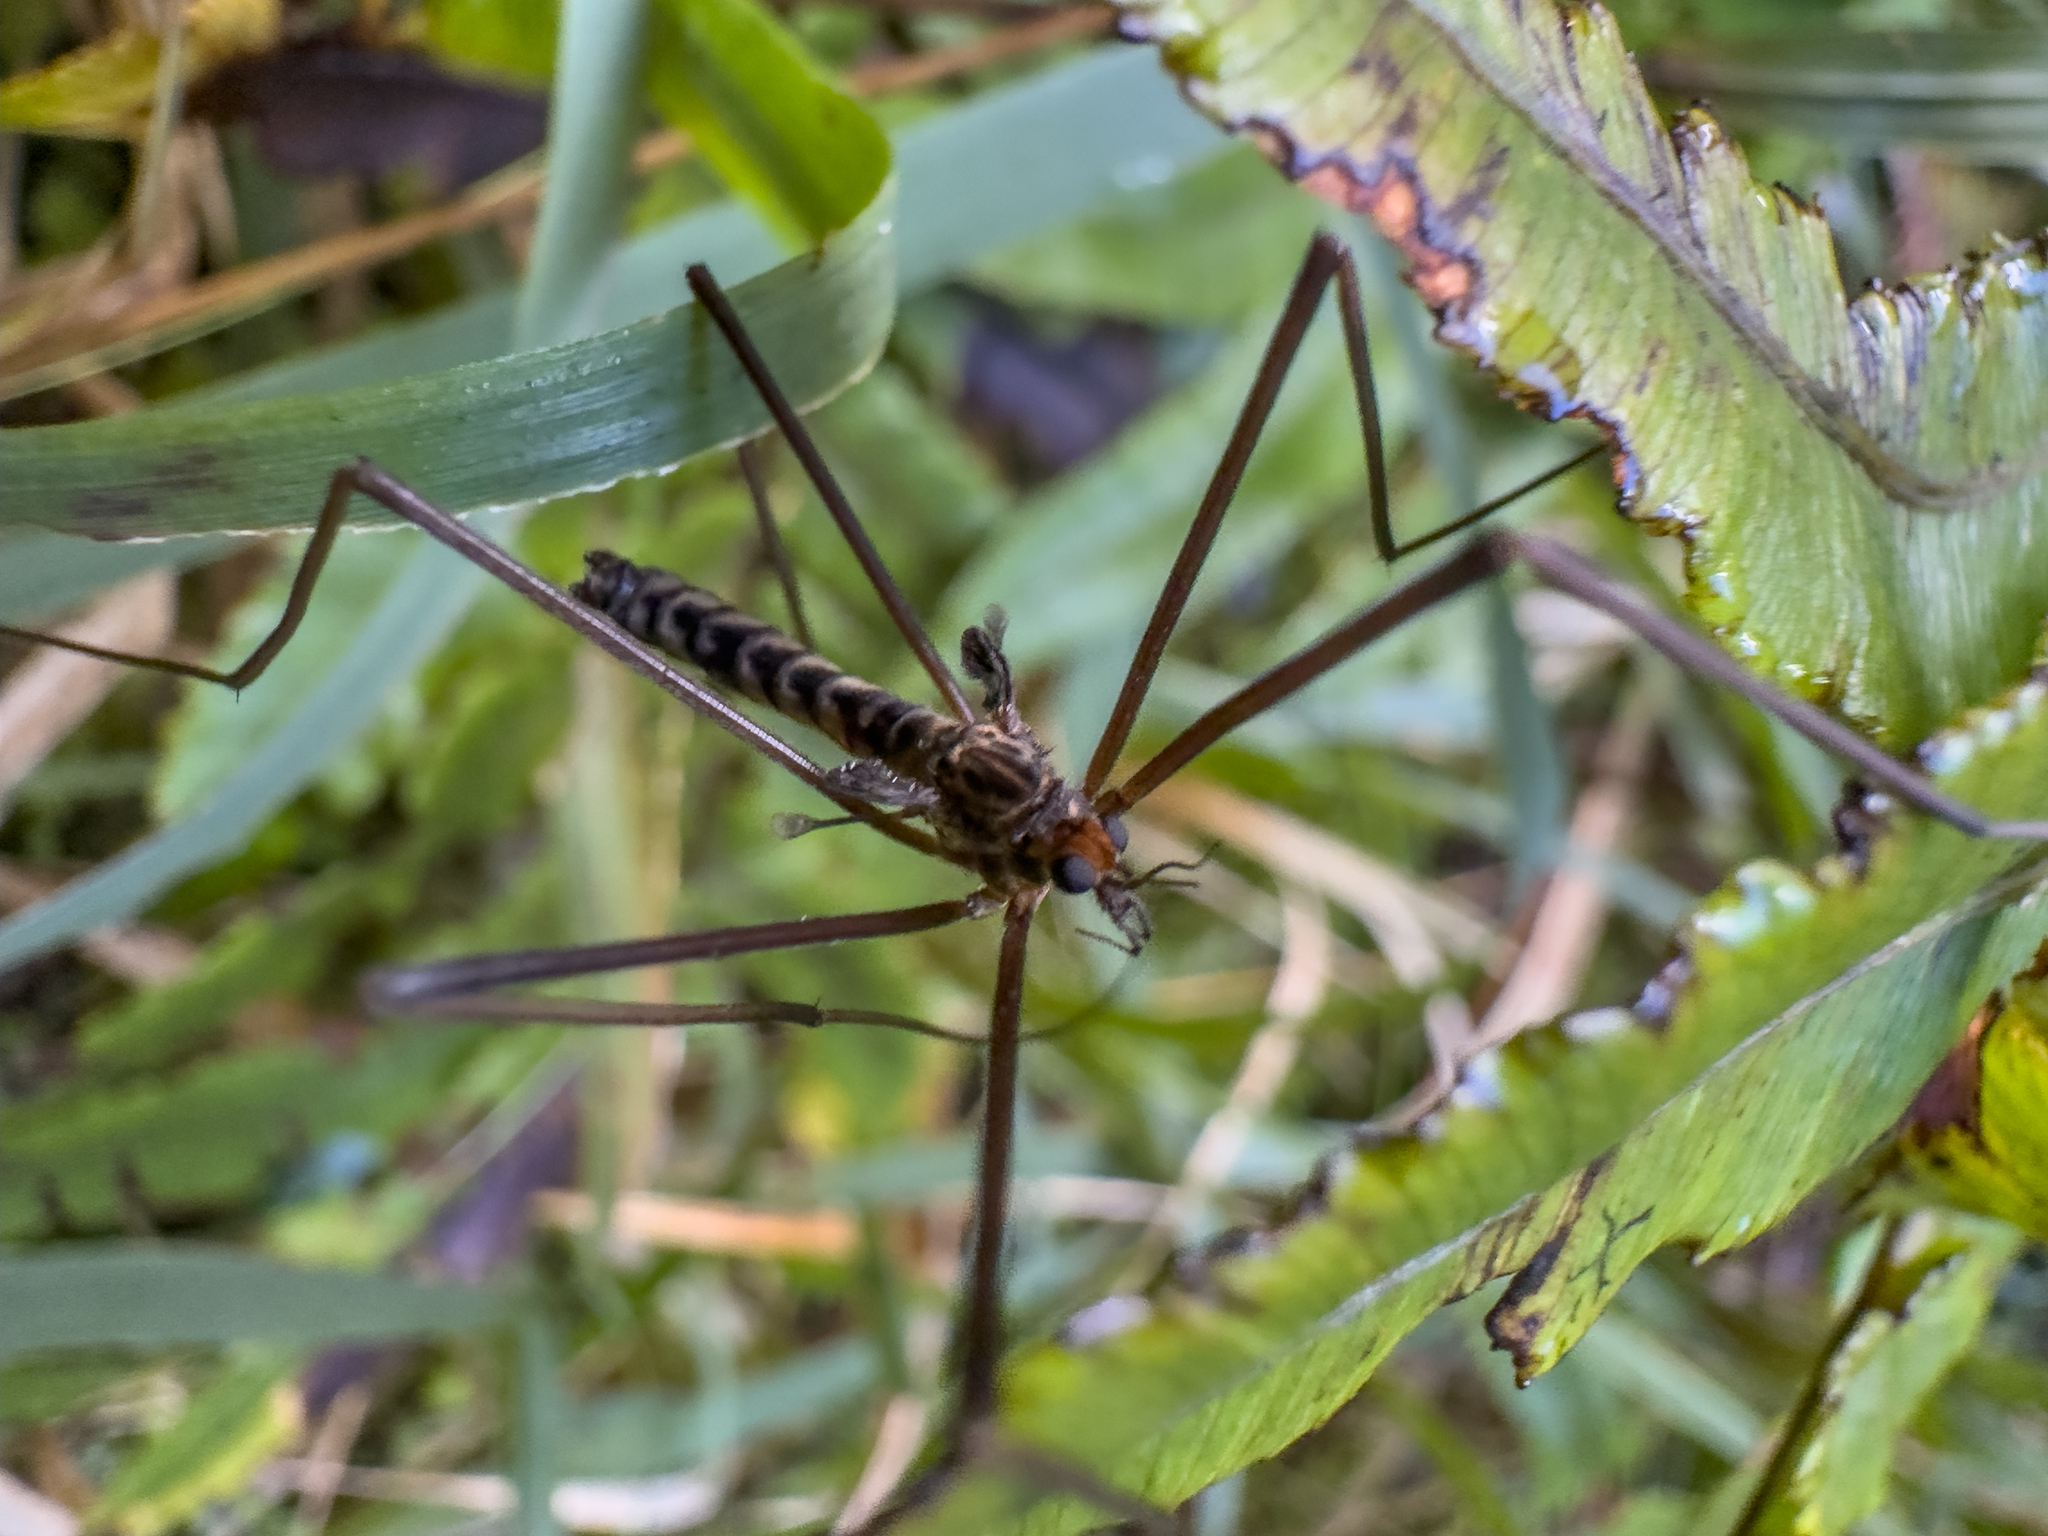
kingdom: Animalia
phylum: Arthropoda
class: Insecta
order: Diptera
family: Tipulidae
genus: Leptotarsus
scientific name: Leptotarsus pedestris
